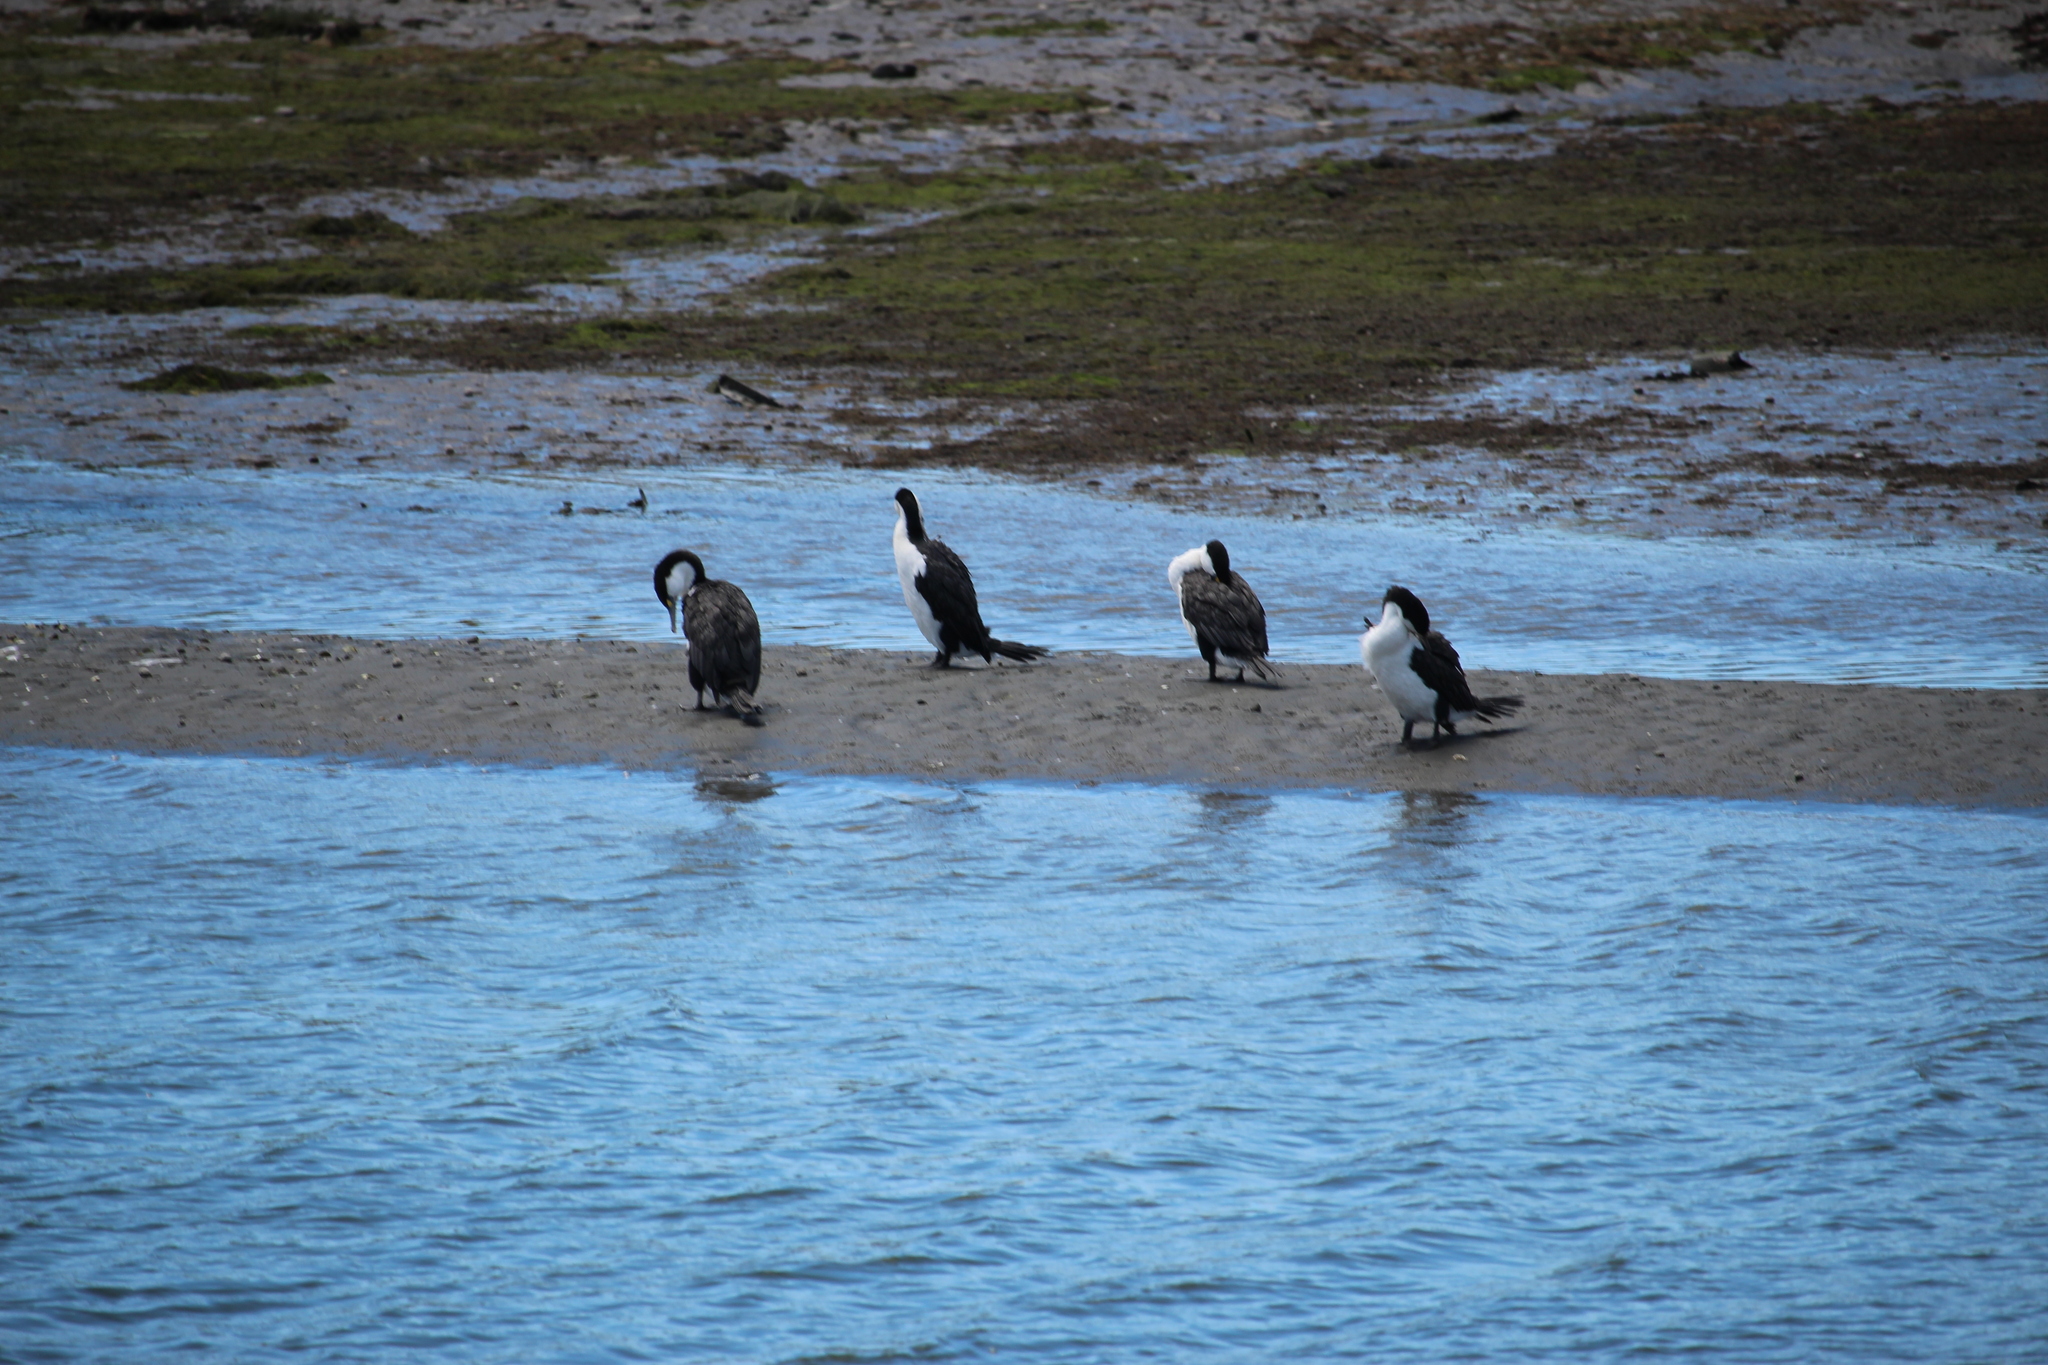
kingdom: Animalia
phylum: Chordata
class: Aves
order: Suliformes
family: Phalacrocoracidae
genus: Phalacrocorax
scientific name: Phalacrocorax varius
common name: Pied cormorant
